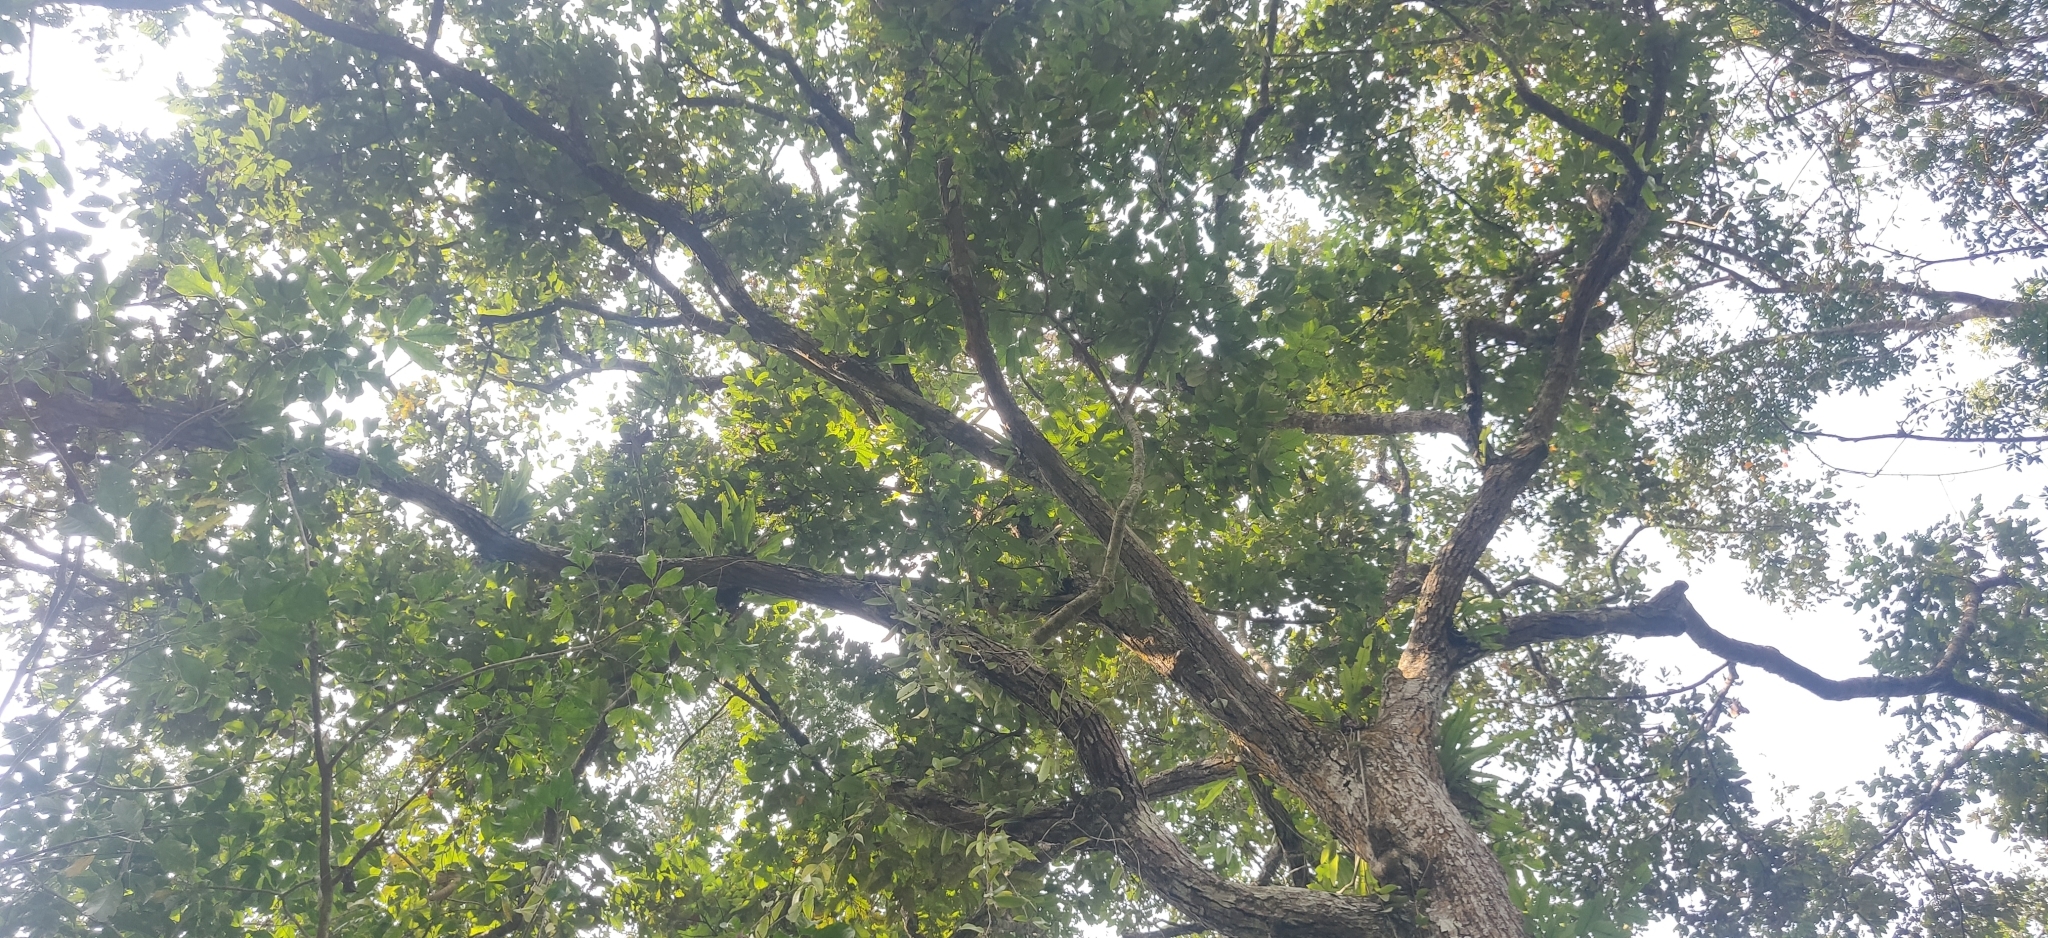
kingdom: Plantae
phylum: Tracheophyta
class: Magnoliopsida
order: Fagales
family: Fagaceae
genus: Castanopsis
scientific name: Castanopsis indica
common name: Indian-chestnut
